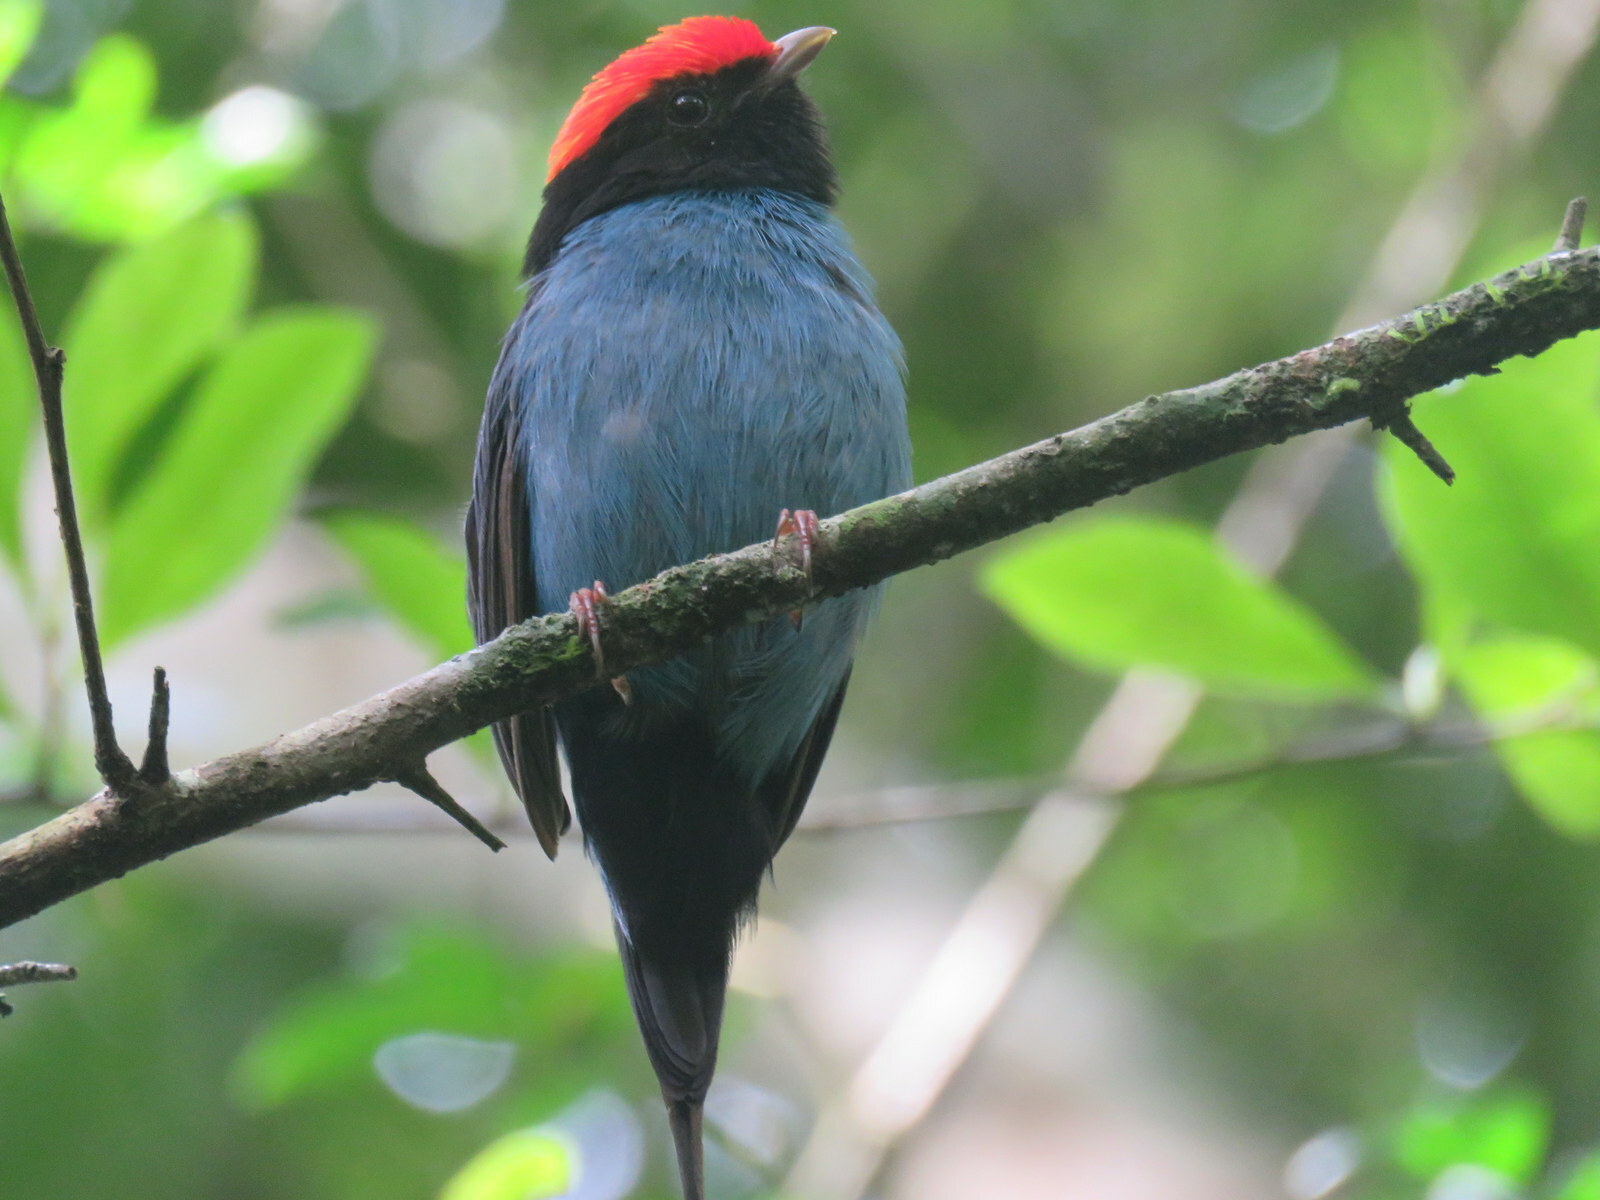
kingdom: Animalia
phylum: Chordata
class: Aves
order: Passeriformes
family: Pipridae
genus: Chiroxiphia
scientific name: Chiroxiphia caudata
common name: Blue manakin
